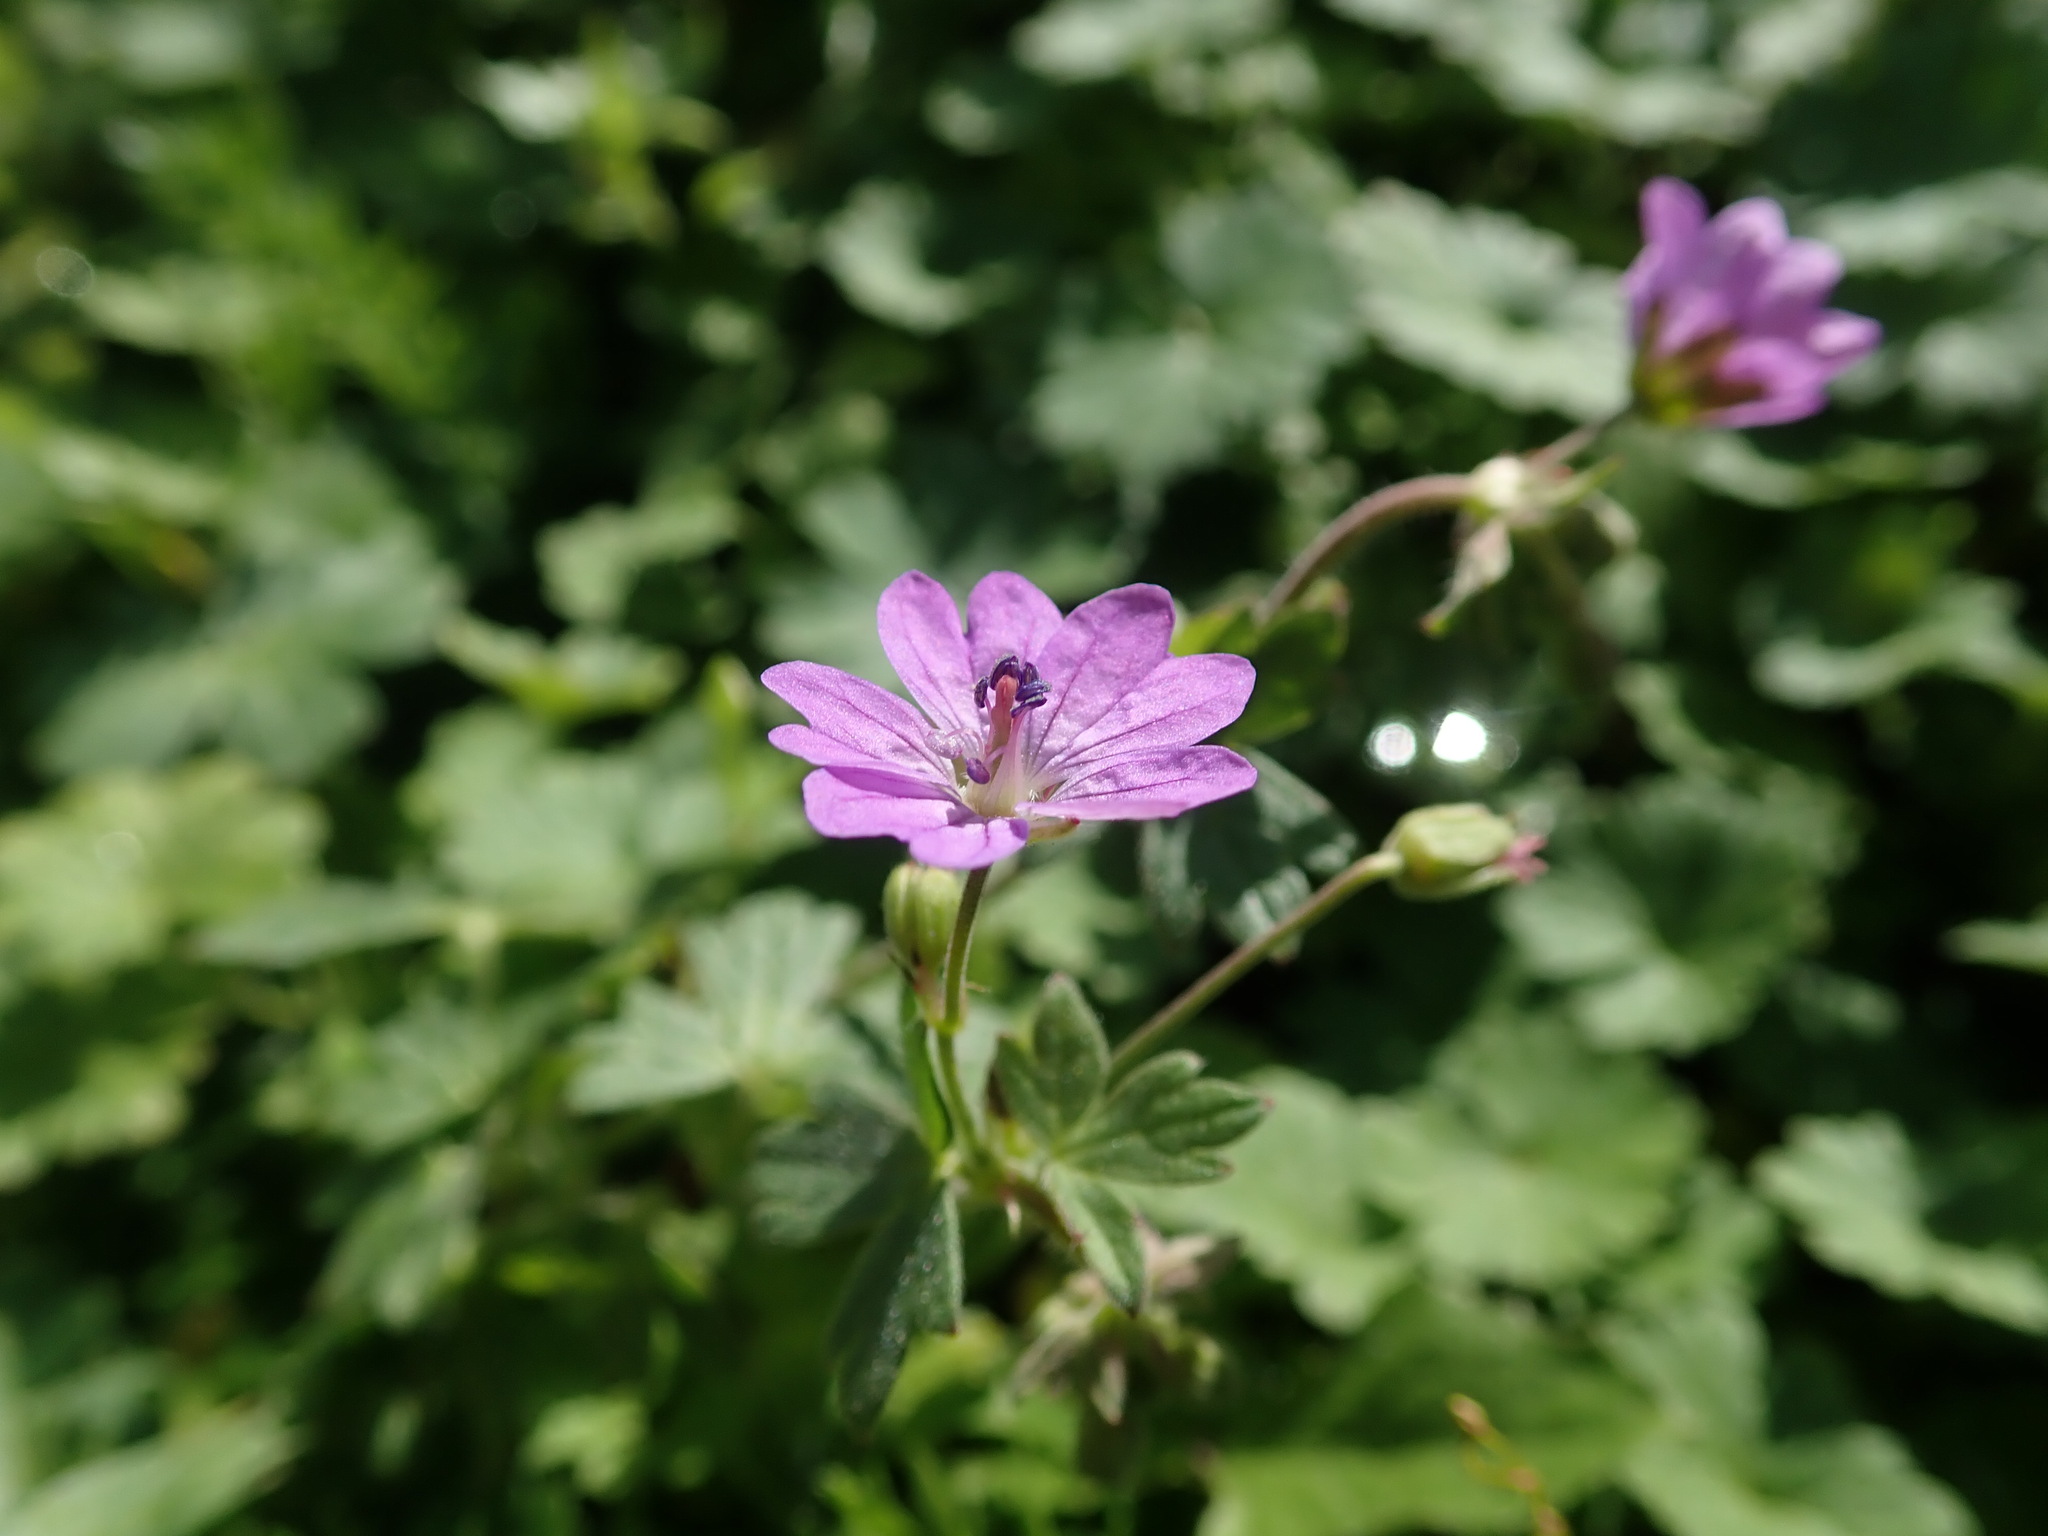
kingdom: Plantae
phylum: Tracheophyta
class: Magnoliopsida
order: Geraniales
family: Geraniaceae
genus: Geranium
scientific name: Geranium pyrenaicum
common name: Hedgerow crane's-bill
